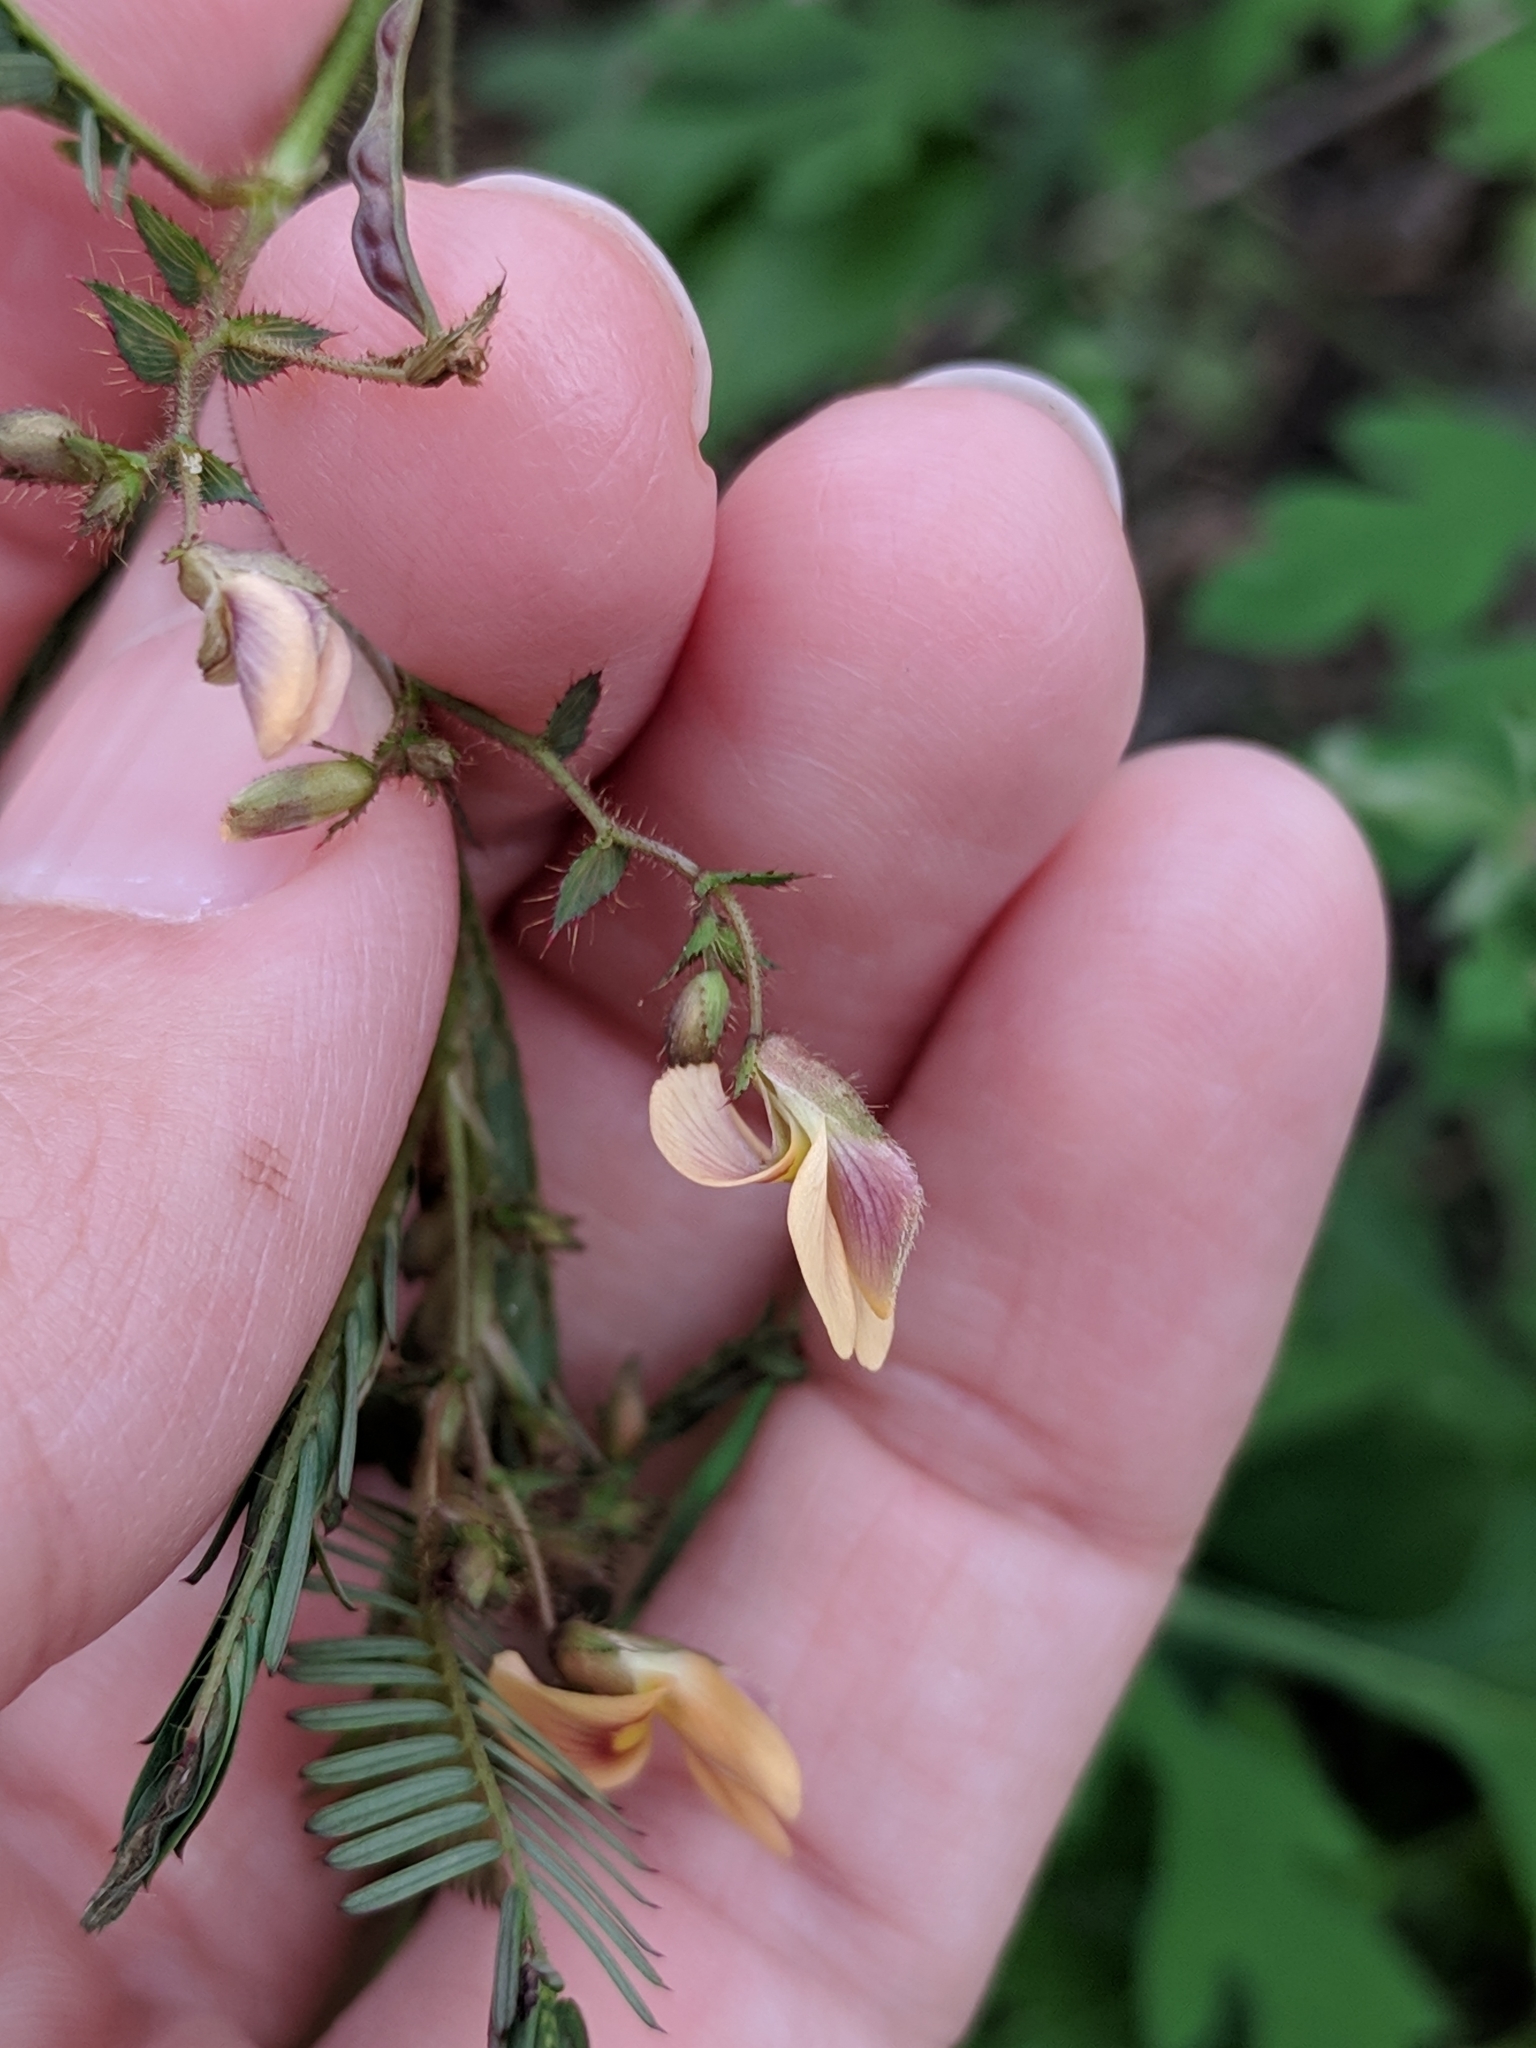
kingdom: Plantae
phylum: Tracheophyta
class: Magnoliopsida
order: Fabales
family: Fabaceae
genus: Aeschynomene
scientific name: Aeschynomene americana
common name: Joint-vetch
